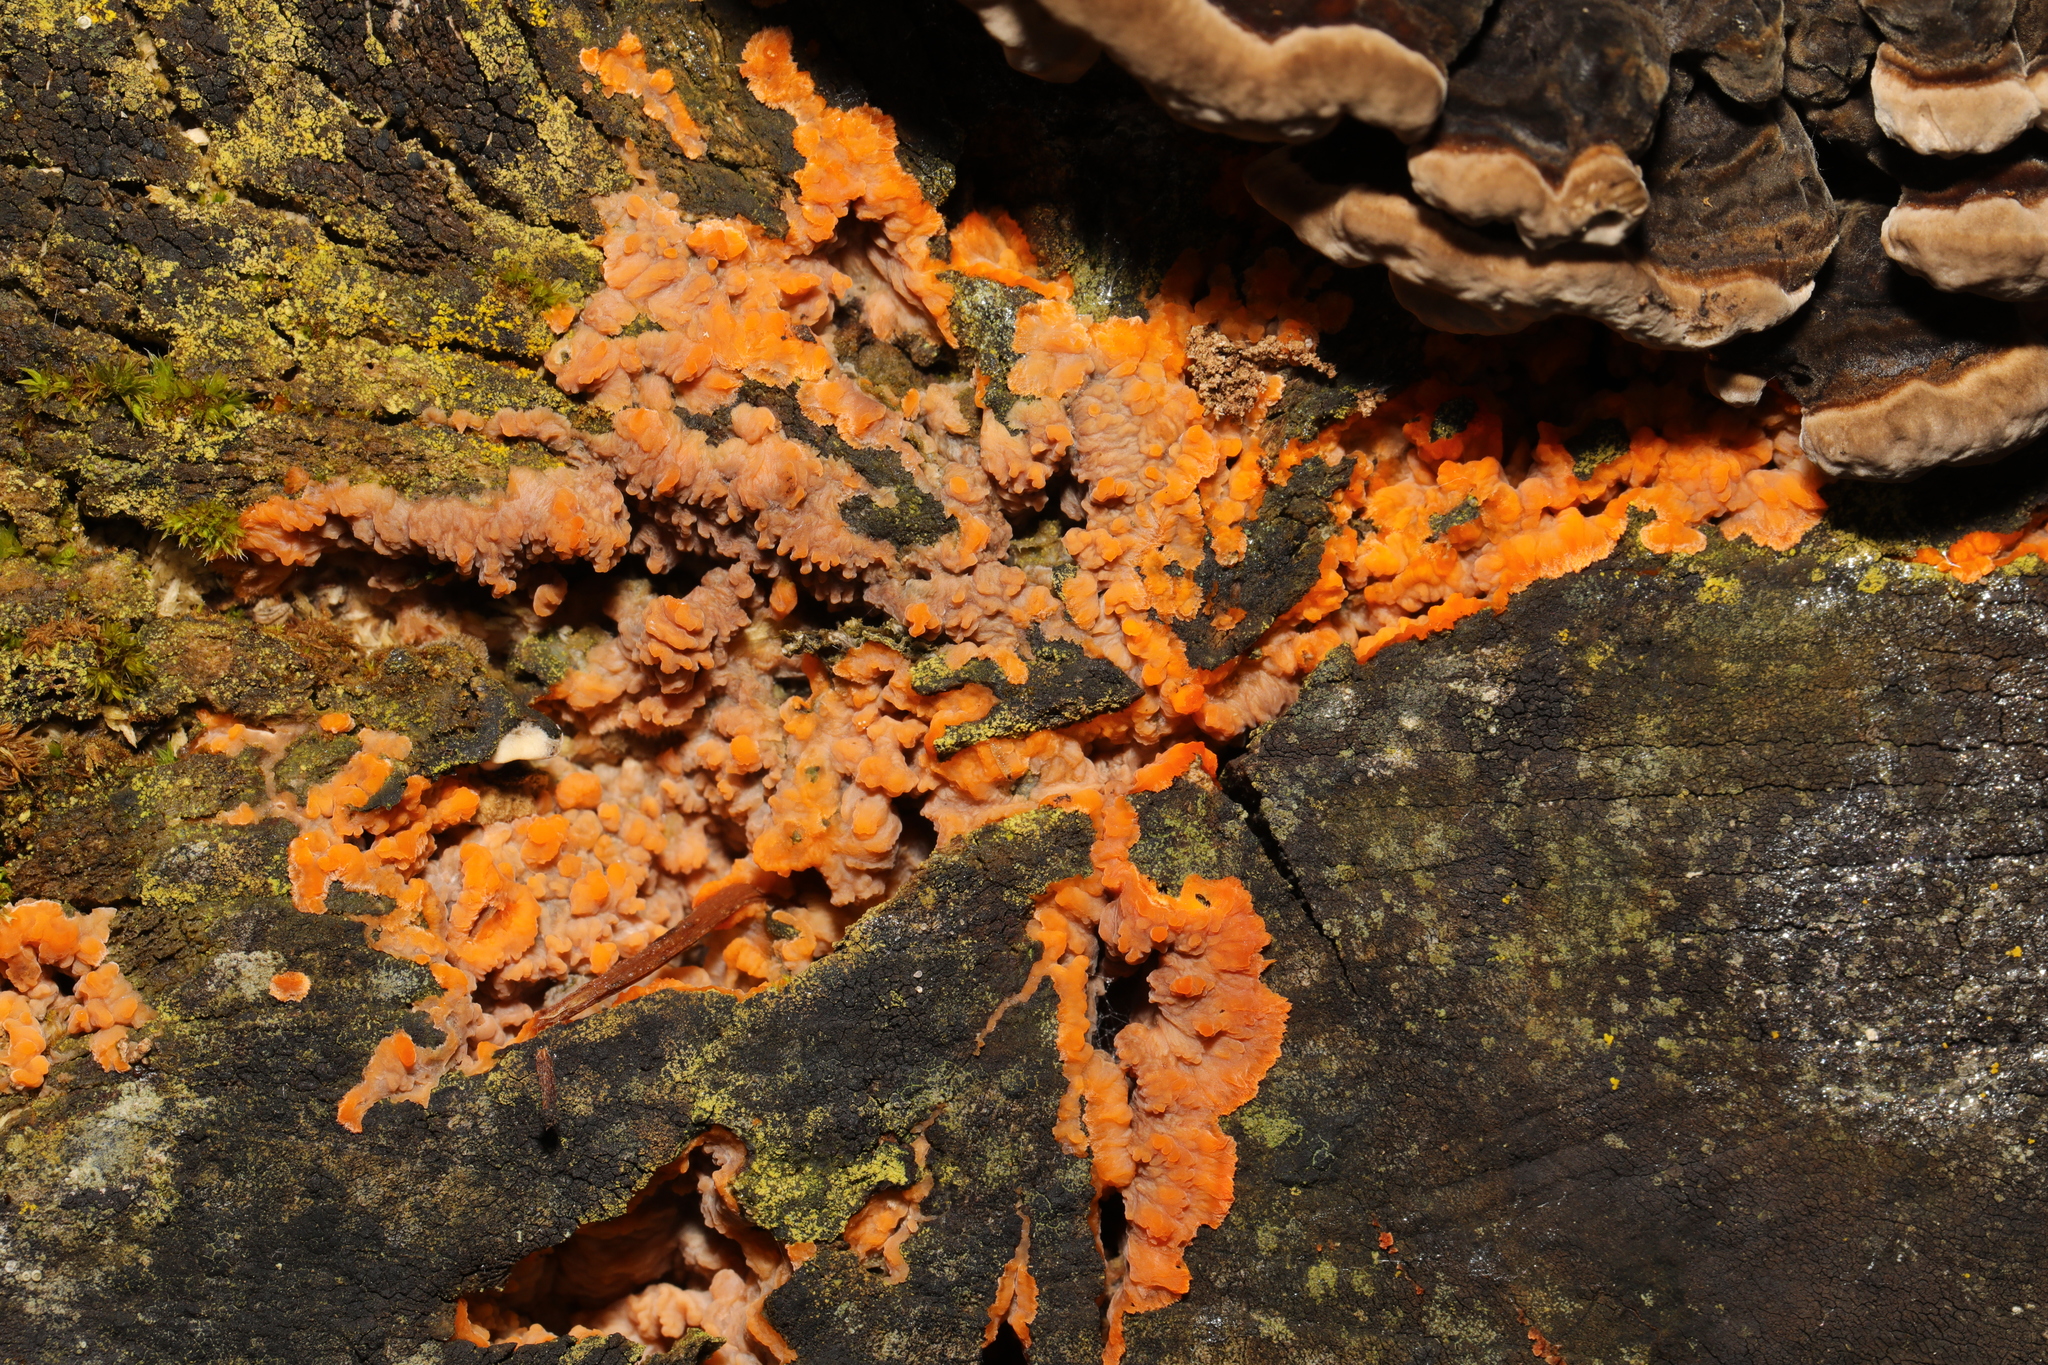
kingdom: Fungi
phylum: Basidiomycota
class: Agaricomycetes
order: Polyporales
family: Meruliaceae
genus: Phlebia
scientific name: Phlebia radiata
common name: Wrinkled crust
